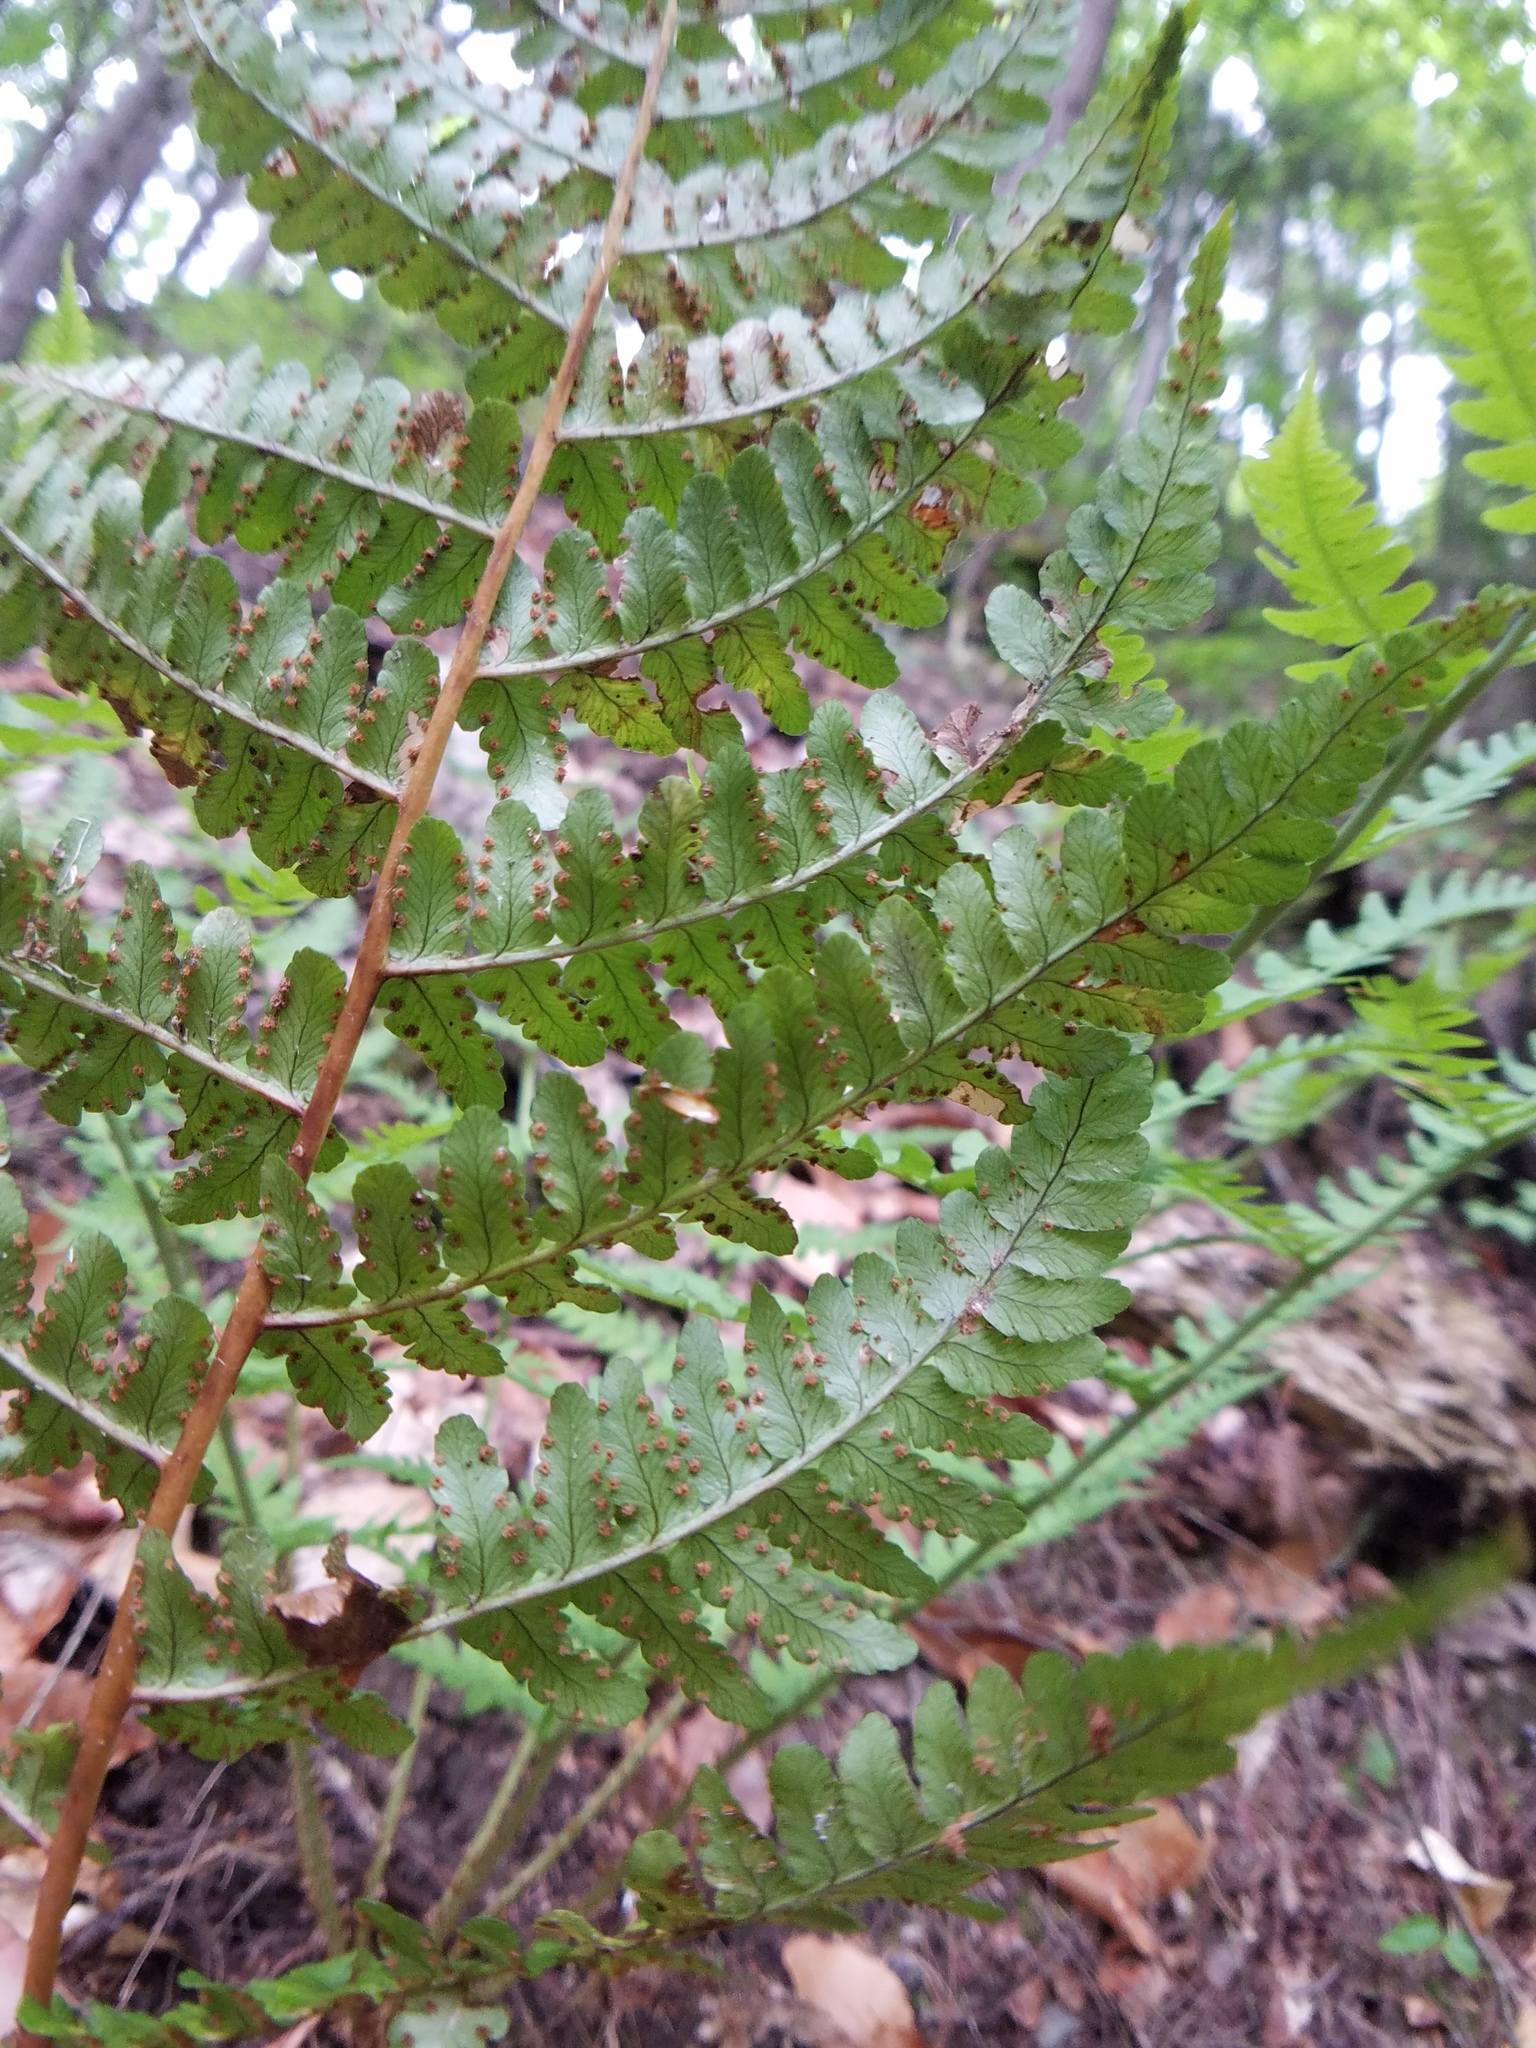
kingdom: Plantae
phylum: Tracheophyta
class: Polypodiopsida
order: Polypodiales
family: Dryopteridaceae
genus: Dryopteris
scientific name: Dryopteris marginalis
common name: Marginal wood fern
